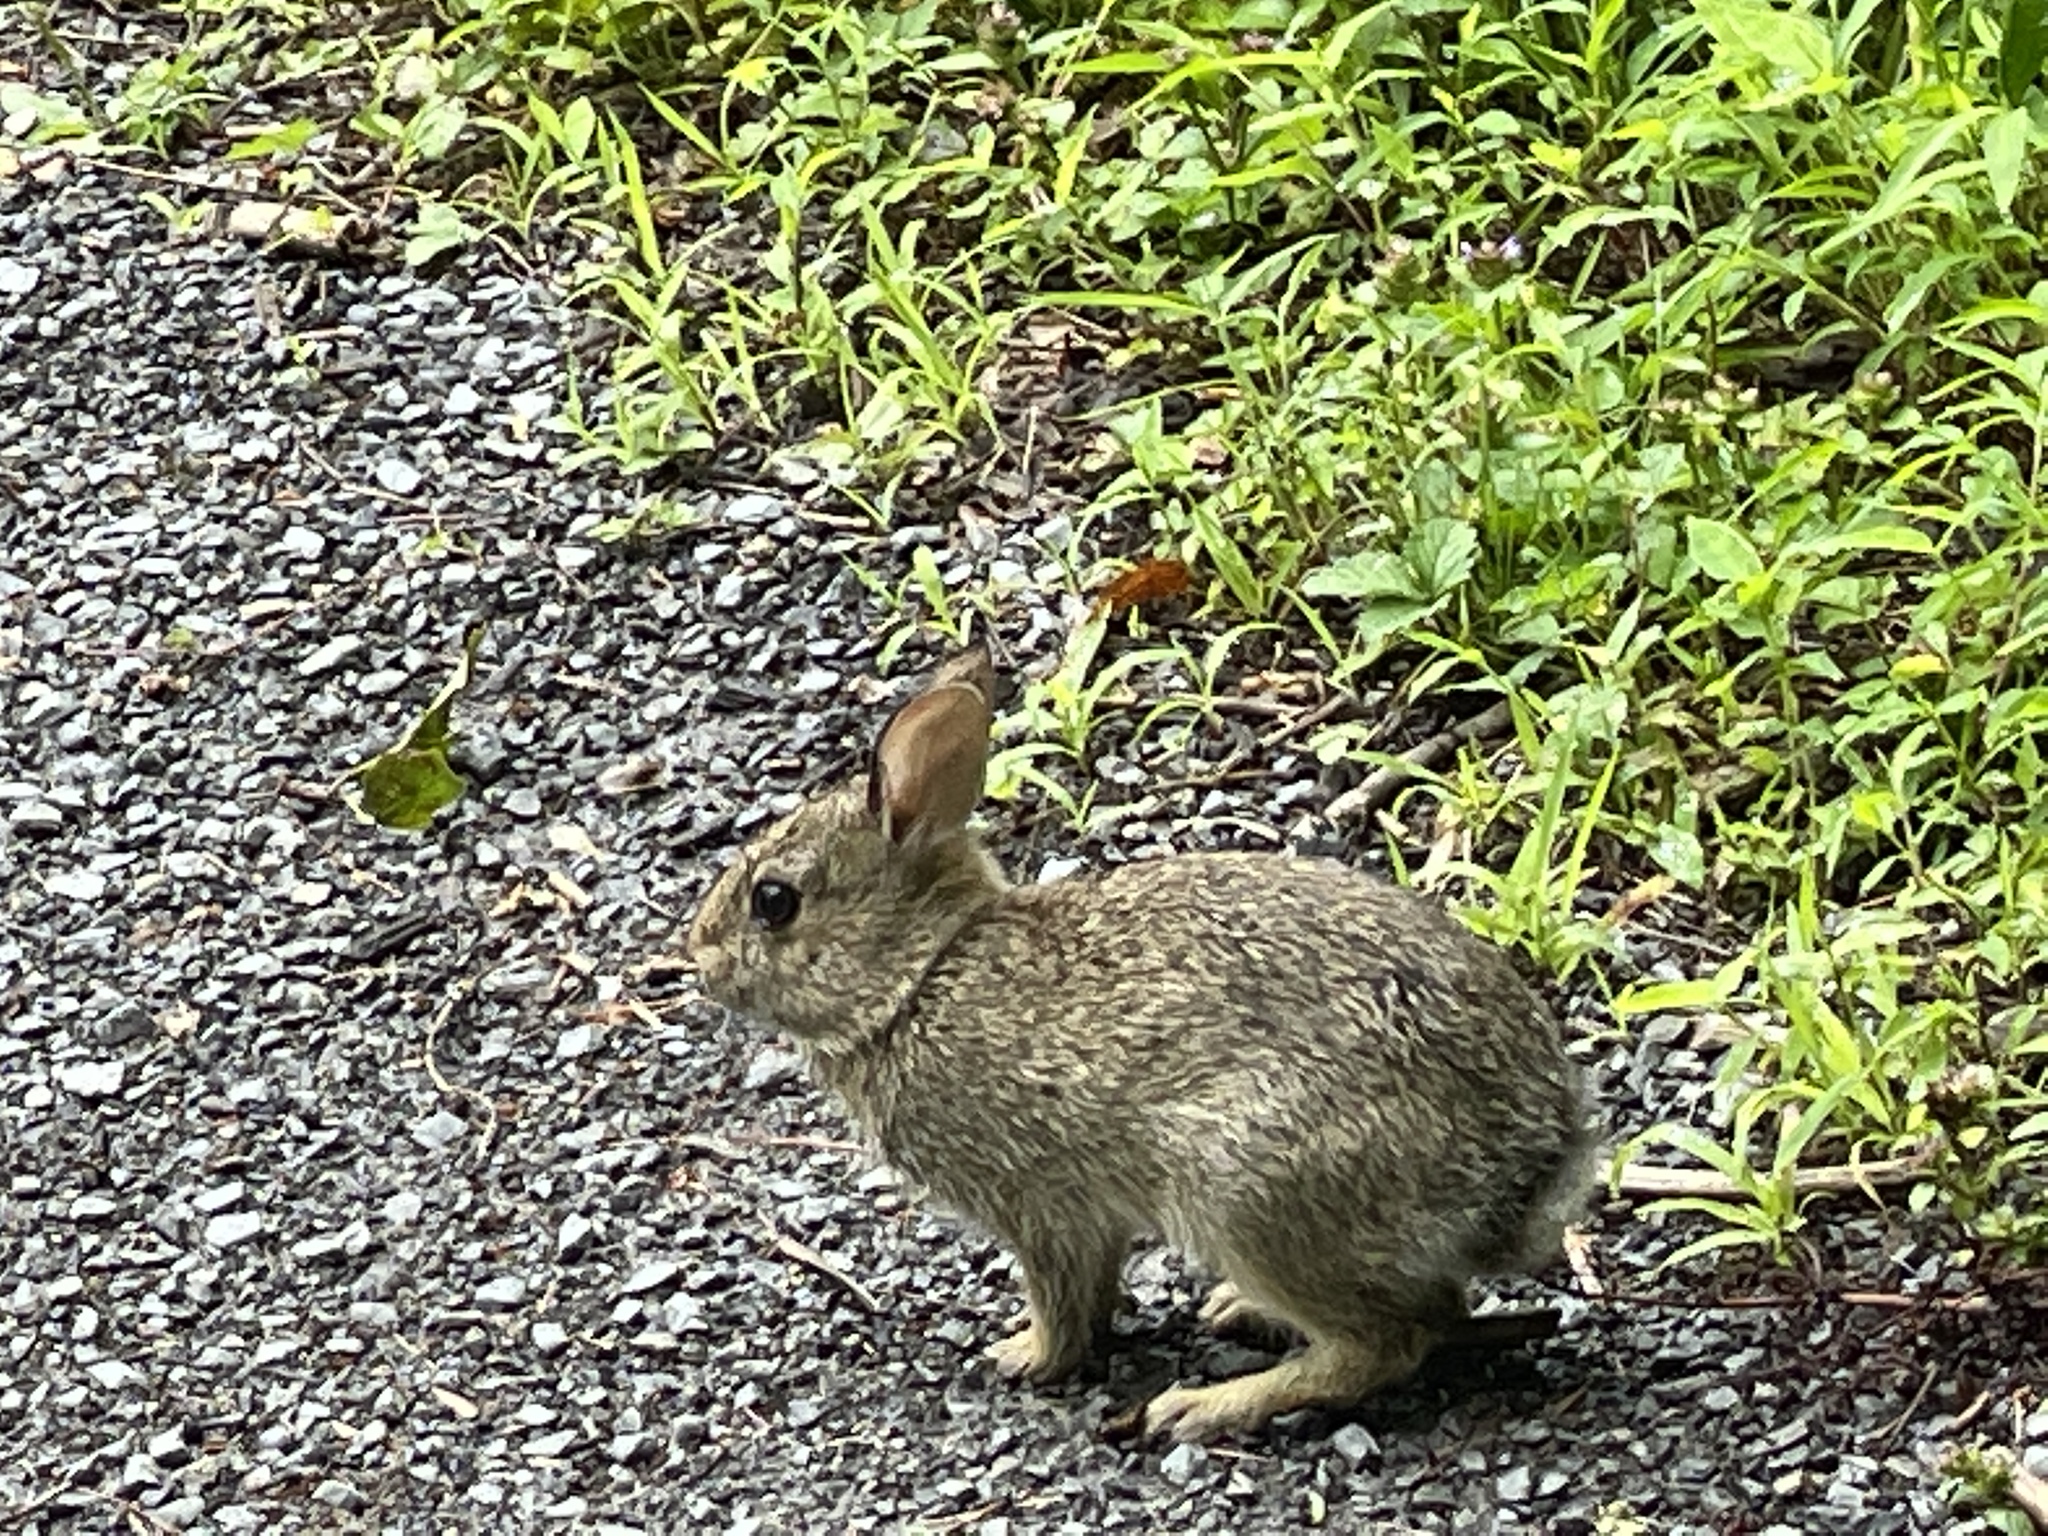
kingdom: Animalia
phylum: Chordata
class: Mammalia
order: Lagomorpha
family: Leporidae
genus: Sylvilagus
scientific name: Sylvilagus floridanus
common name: Eastern cottontail
